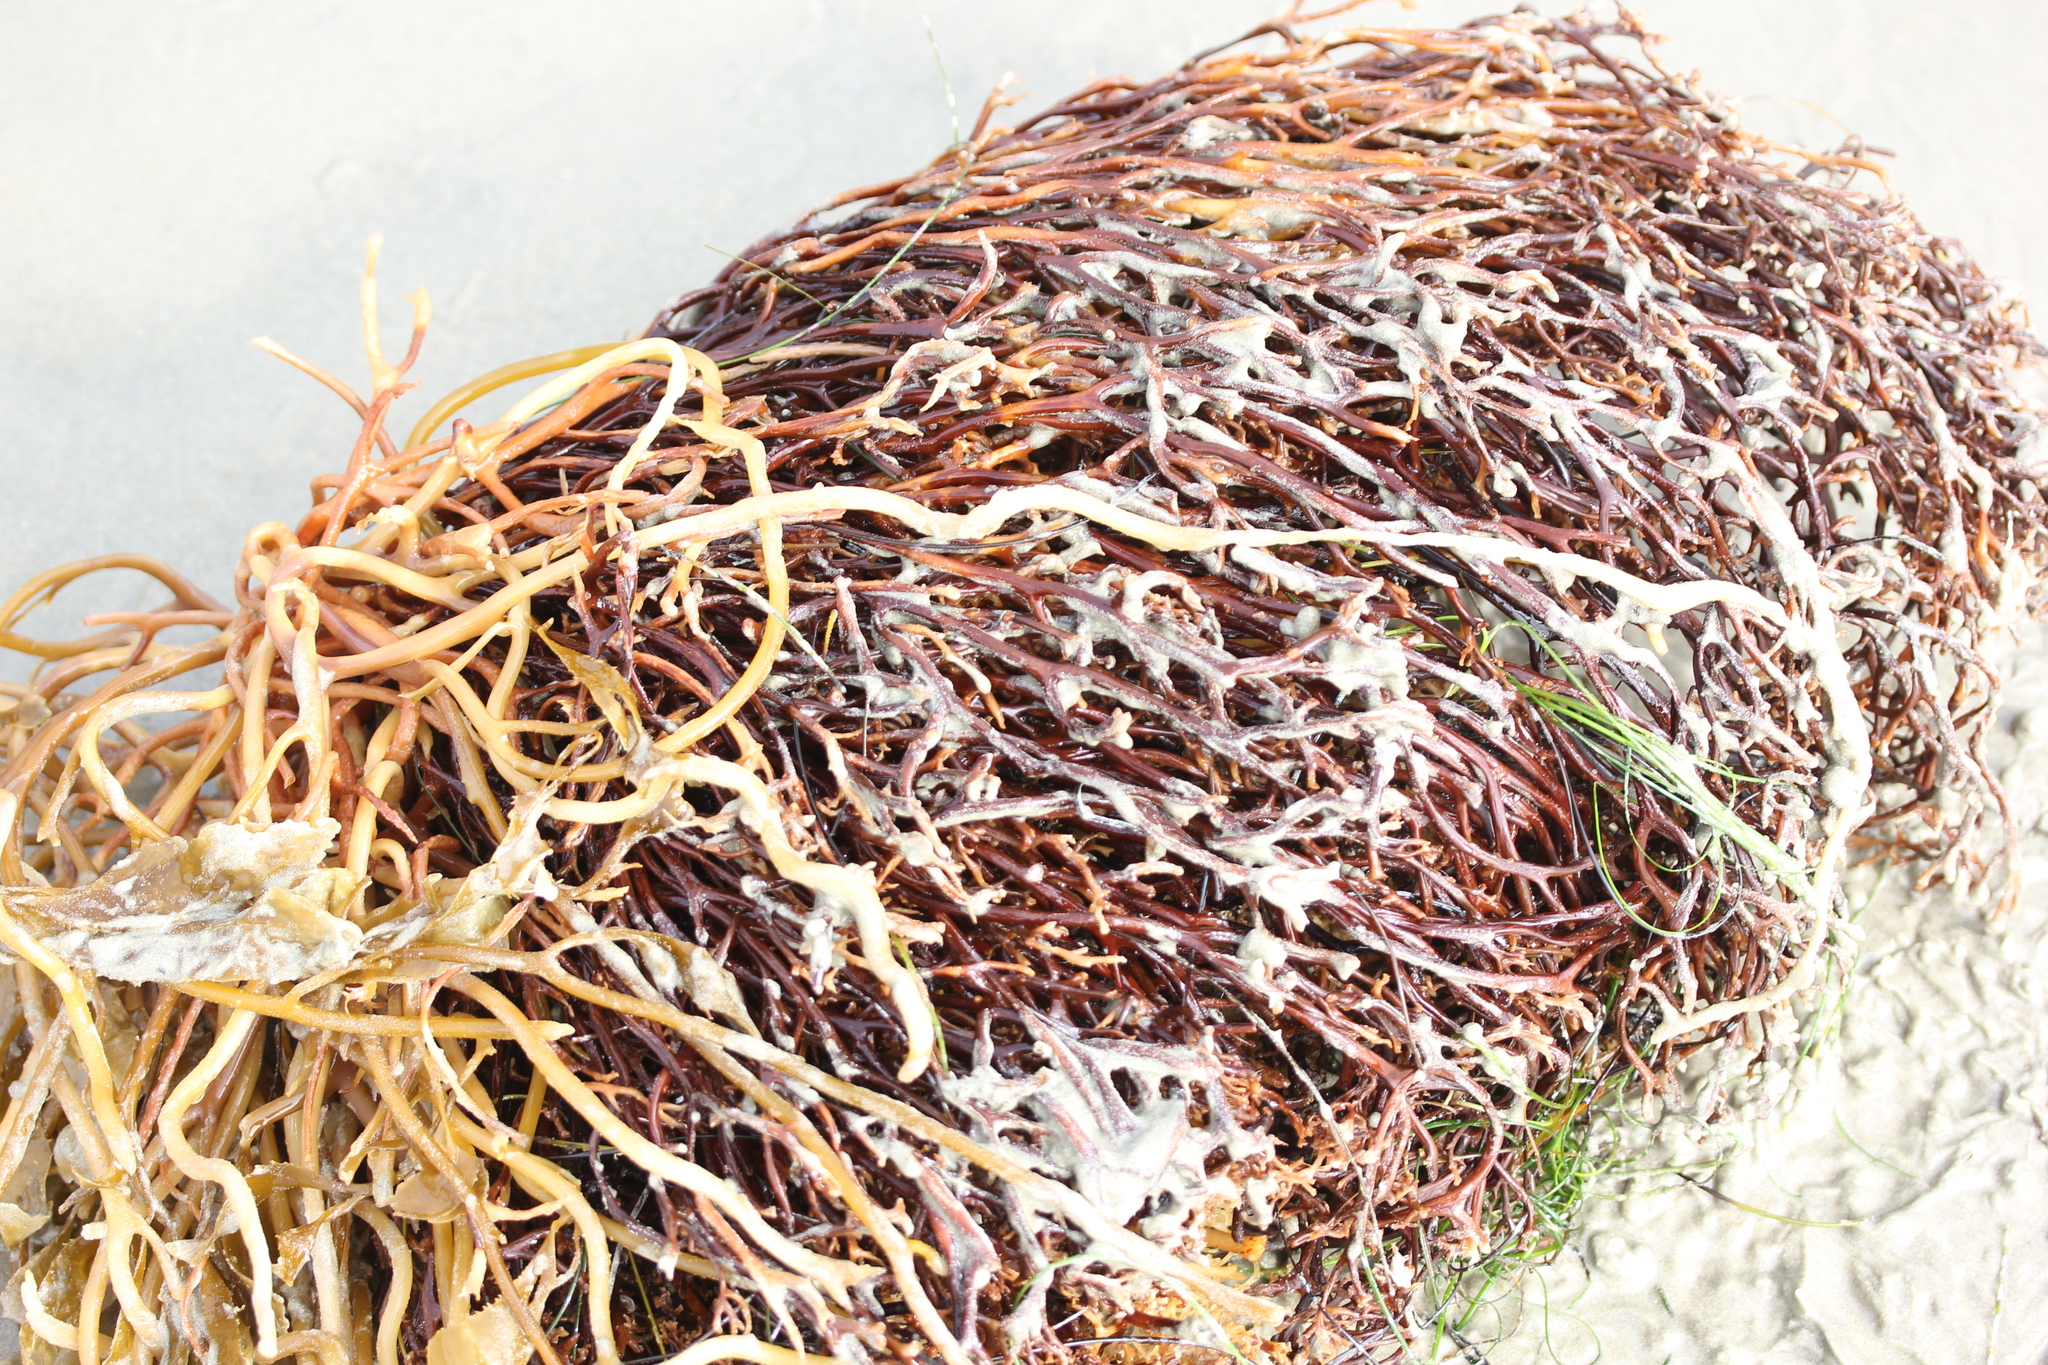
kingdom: Chromista
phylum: Ochrophyta
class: Phaeophyceae
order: Laminariales
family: Laminariaceae
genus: Macrocystis
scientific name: Macrocystis pyrifera
